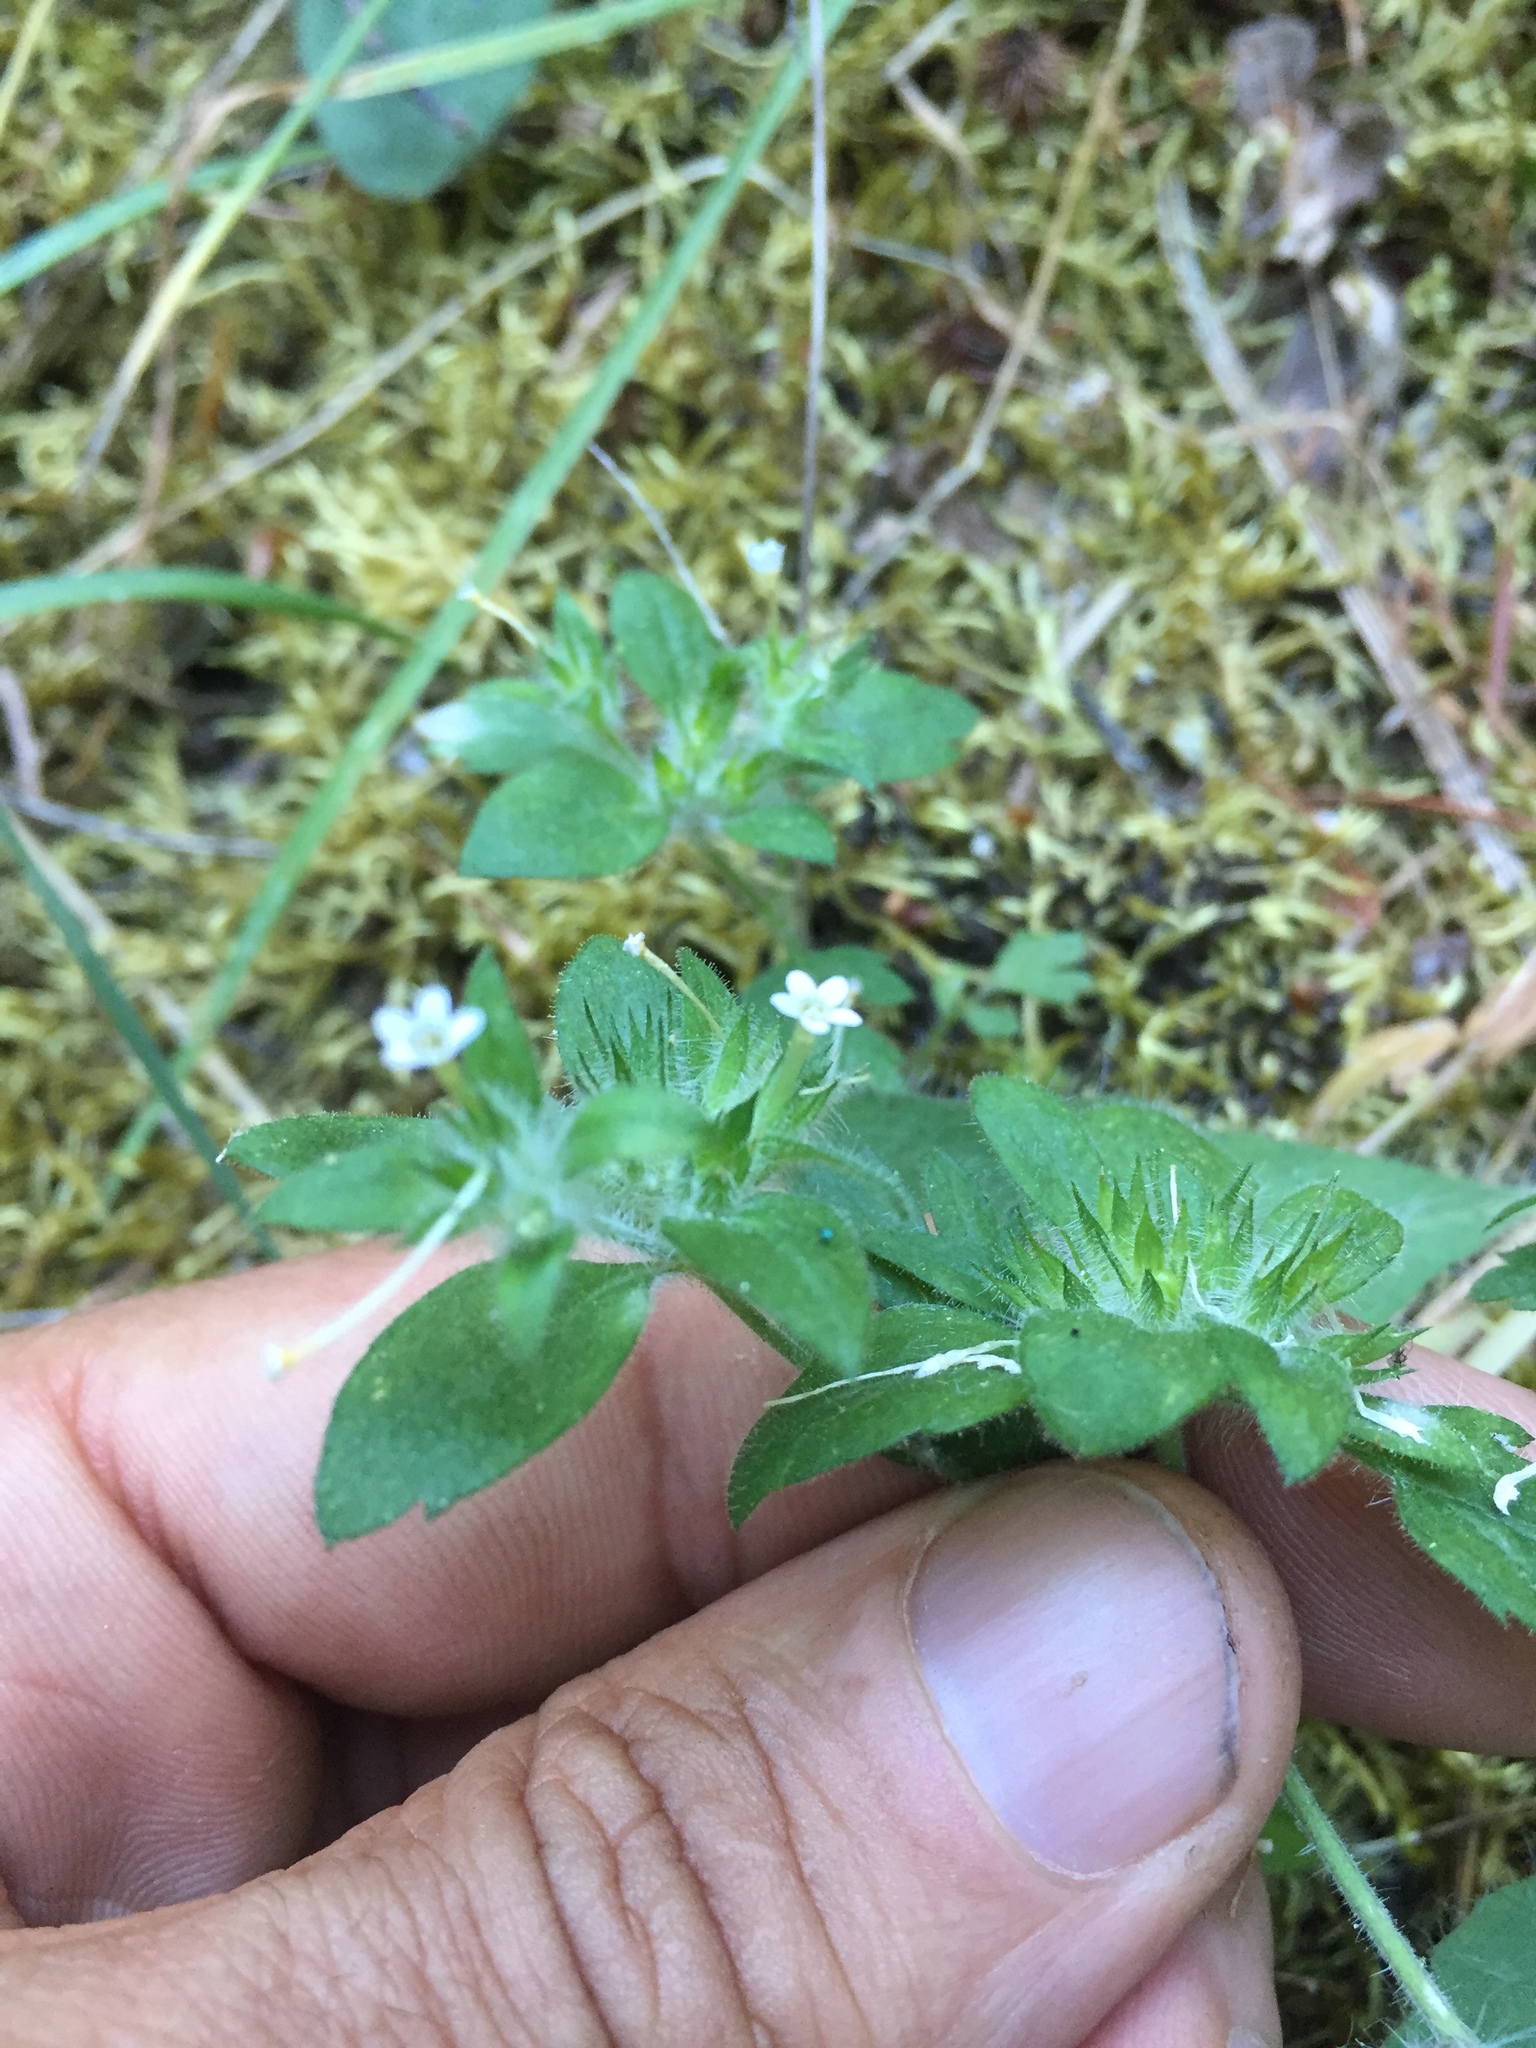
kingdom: Plantae
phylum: Tracheophyta
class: Magnoliopsida
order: Ericales
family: Polemoniaceae
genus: Collomia
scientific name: Collomia heterophylla
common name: Variable-leaved collomia
